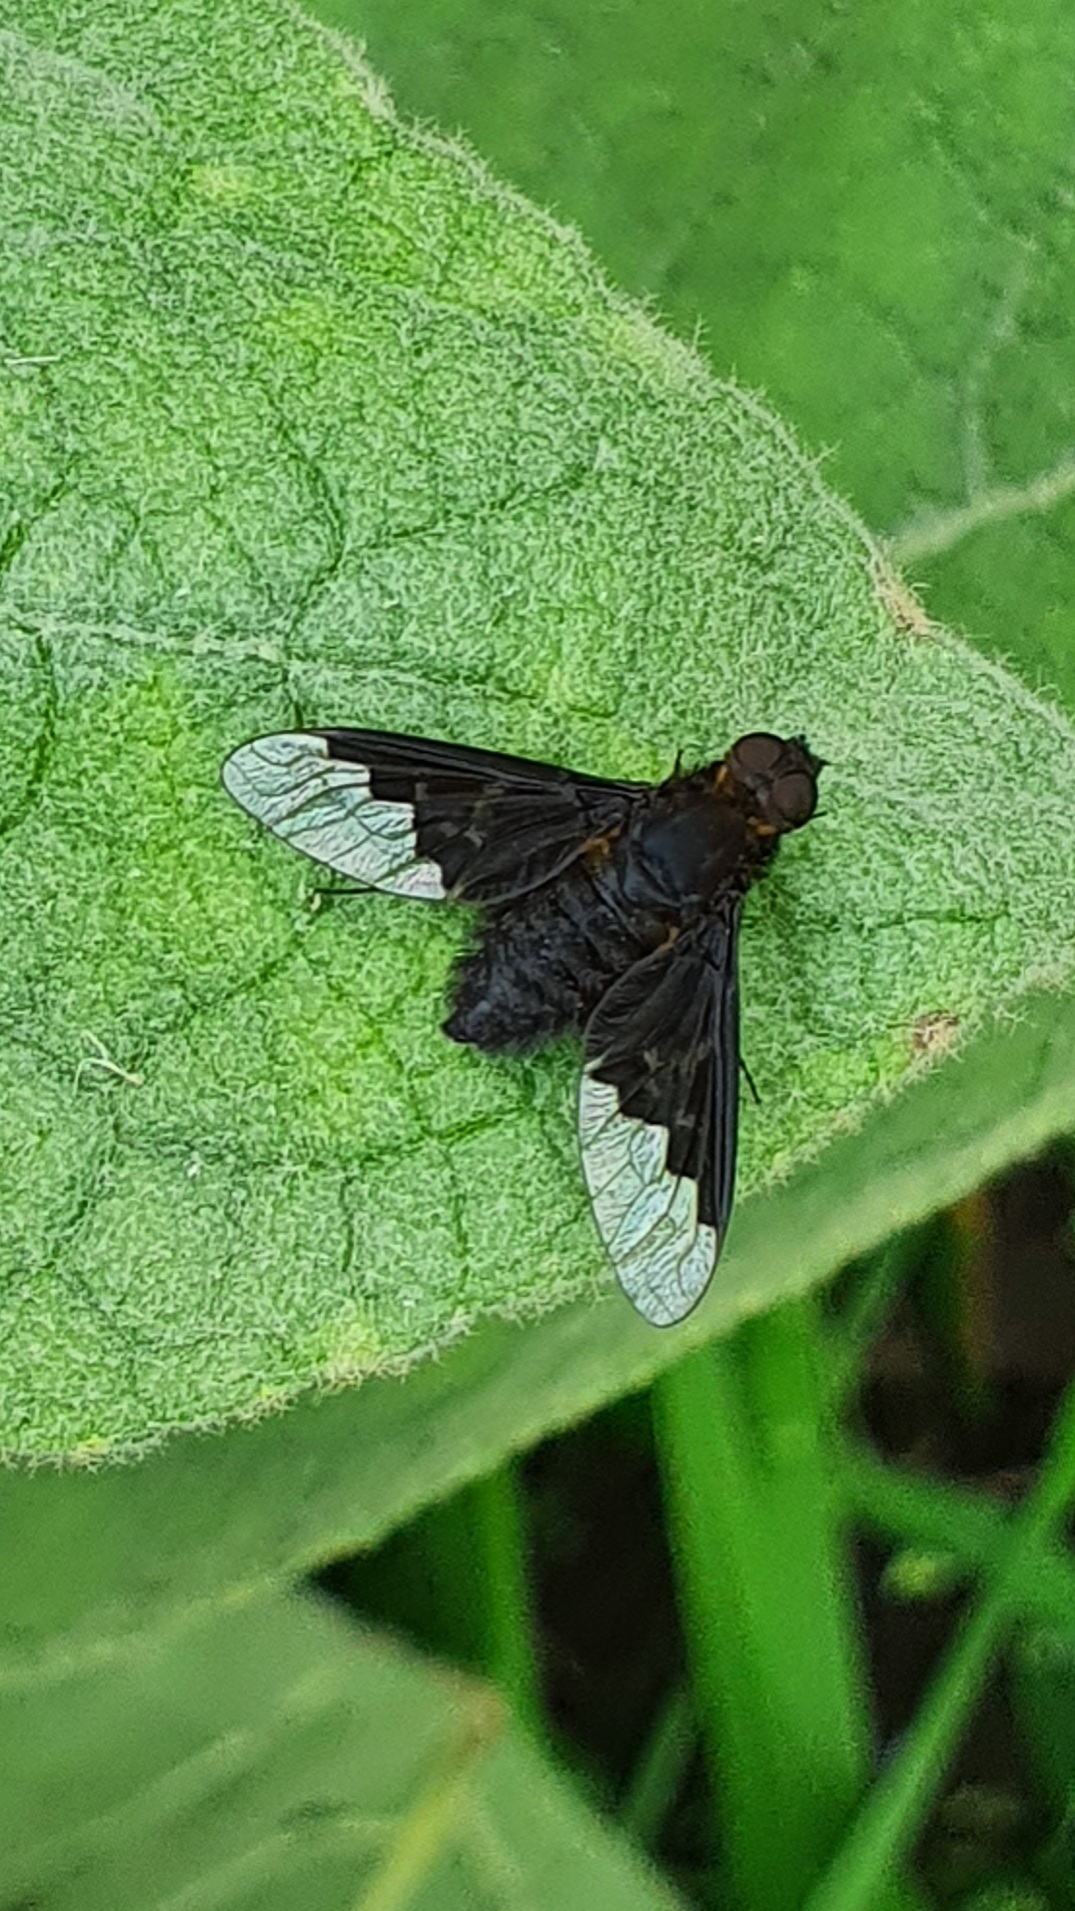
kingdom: Animalia
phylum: Arthropoda
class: Insecta
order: Diptera
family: Bombyliidae
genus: Hemipenthes
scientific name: Hemipenthes morio
